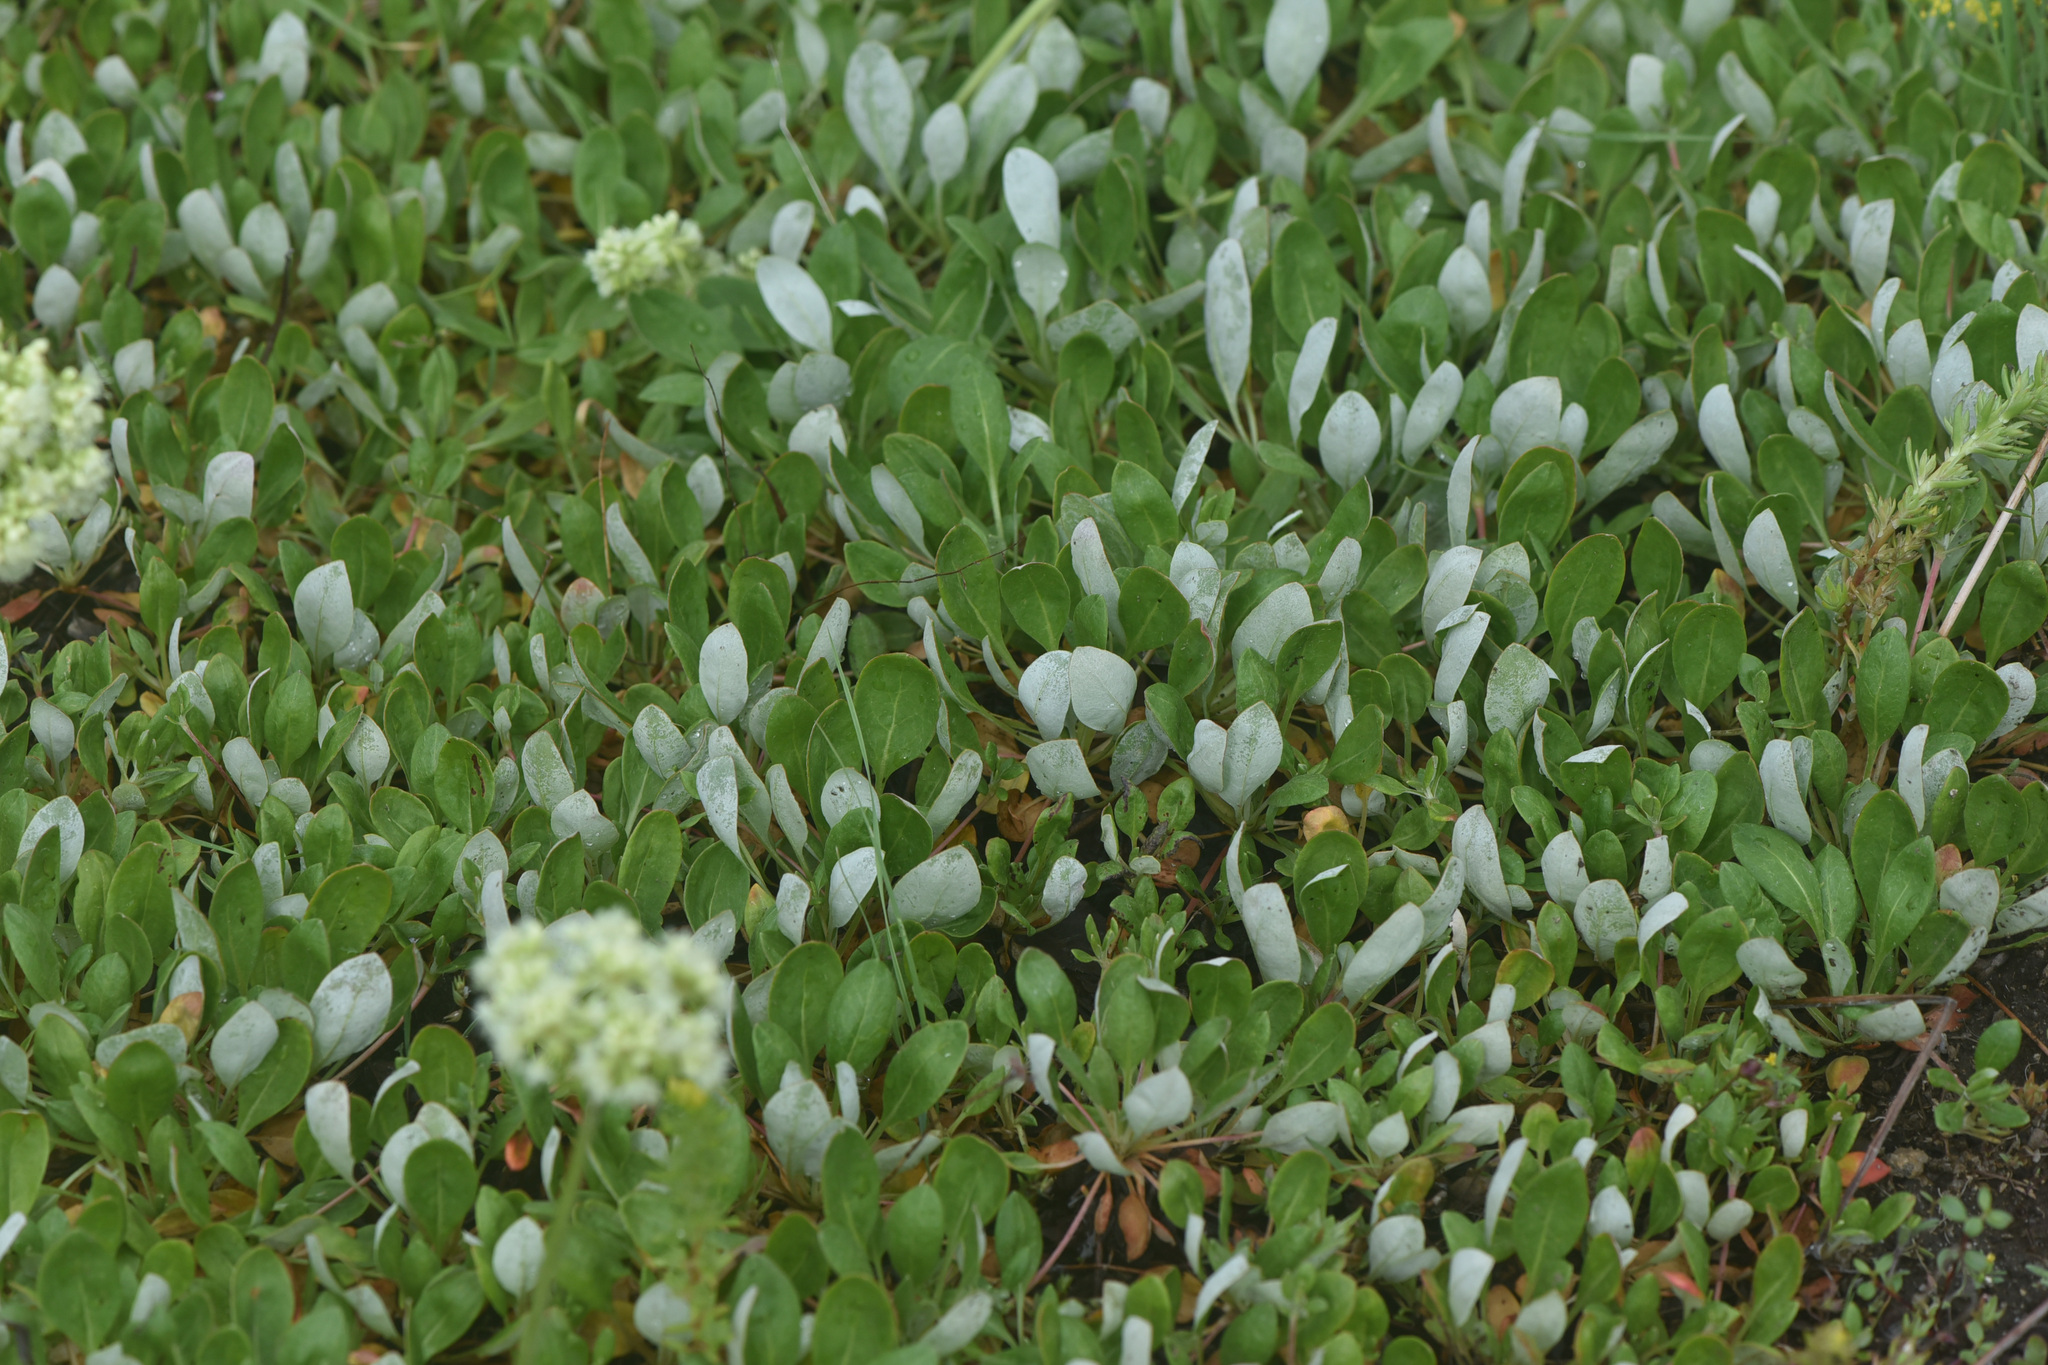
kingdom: Plantae
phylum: Tracheophyta
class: Magnoliopsida
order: Caryophyllales
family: Polygonaceae
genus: Eriogonum
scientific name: Eriogonum umbellatum
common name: Sulfur-buckwheat
